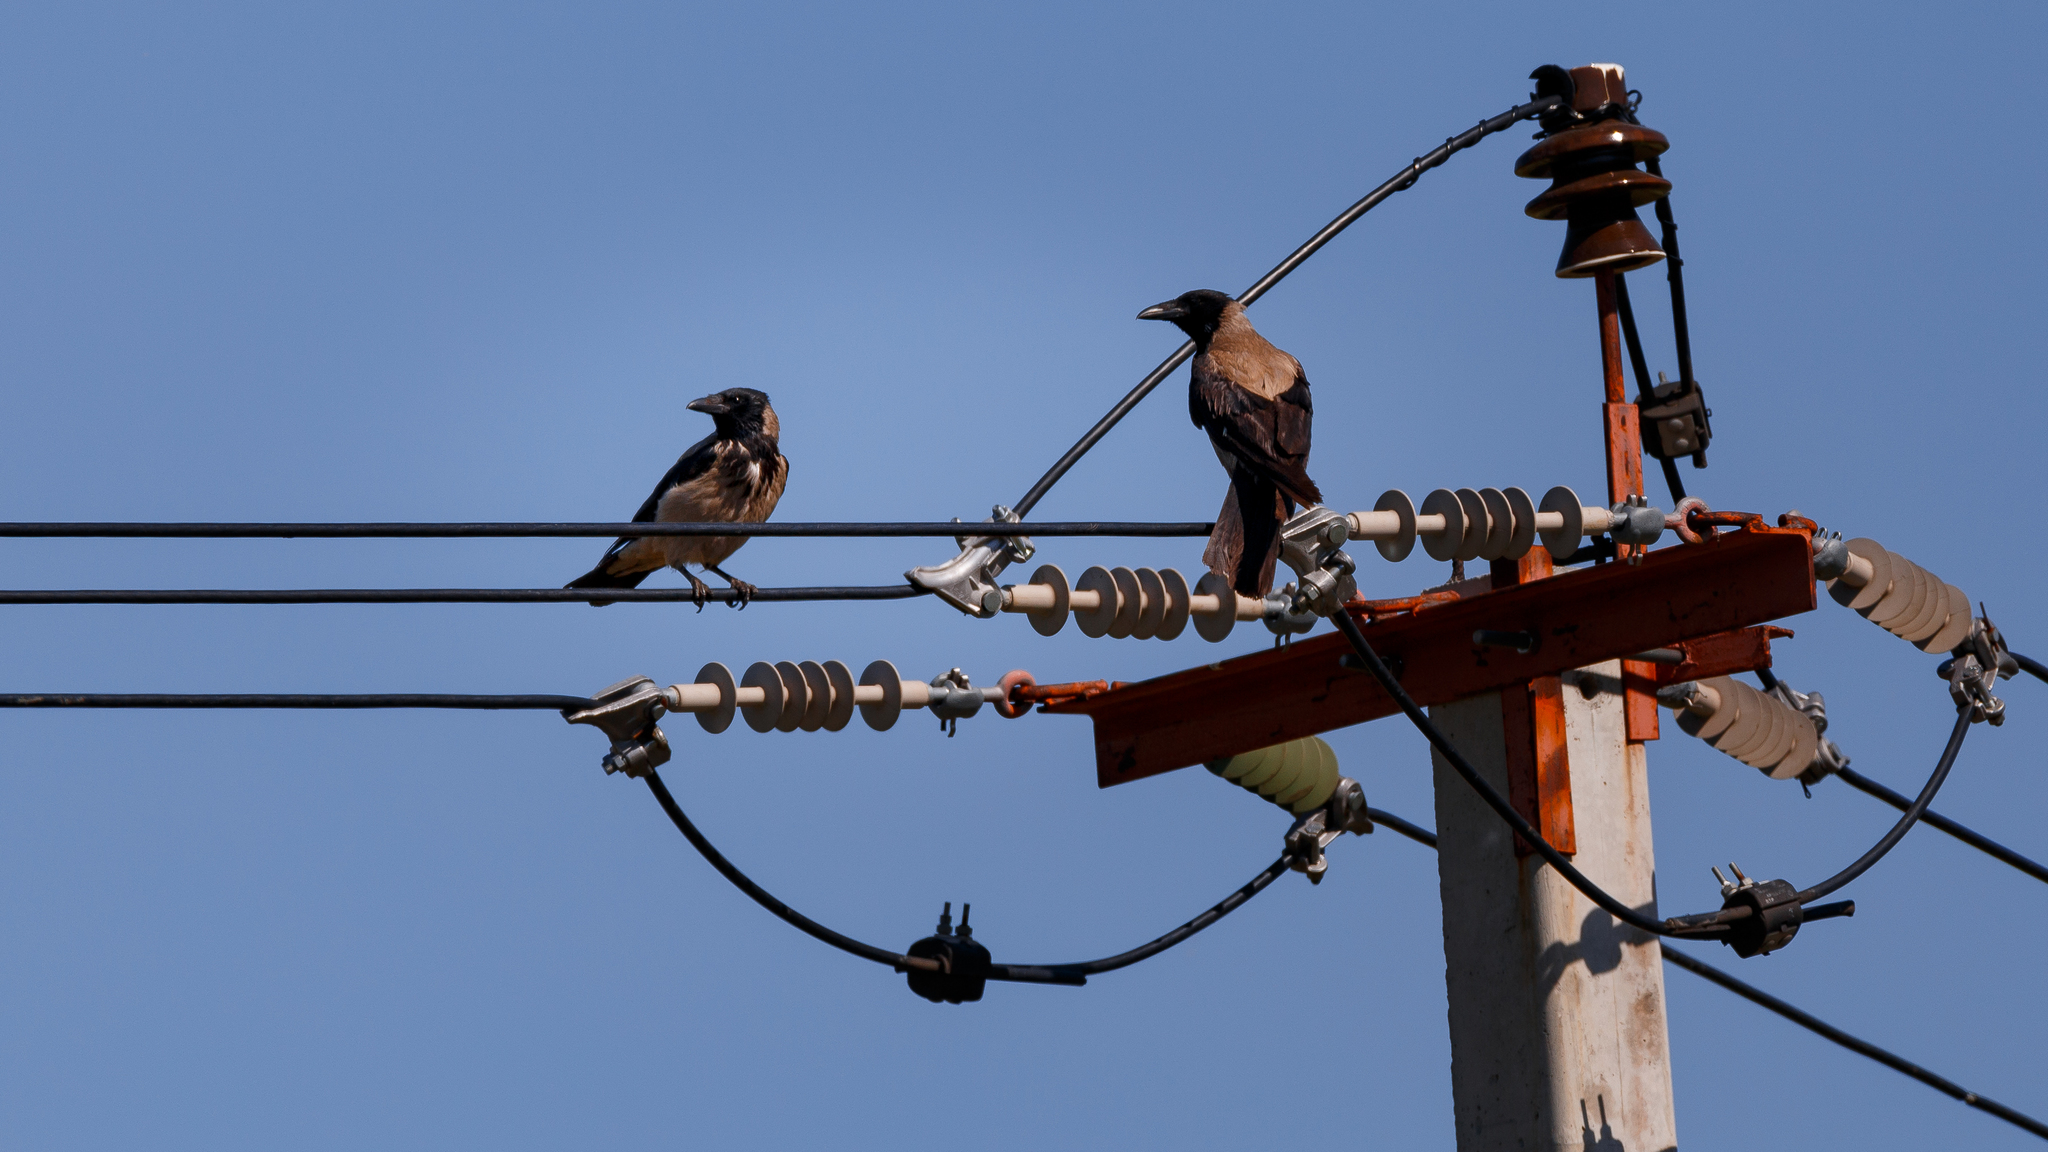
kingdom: Animalia
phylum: Chordata
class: Aves
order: Passeriformes
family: Corvidae
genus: Corvus
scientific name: Corvus cornix
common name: Hooded crow
